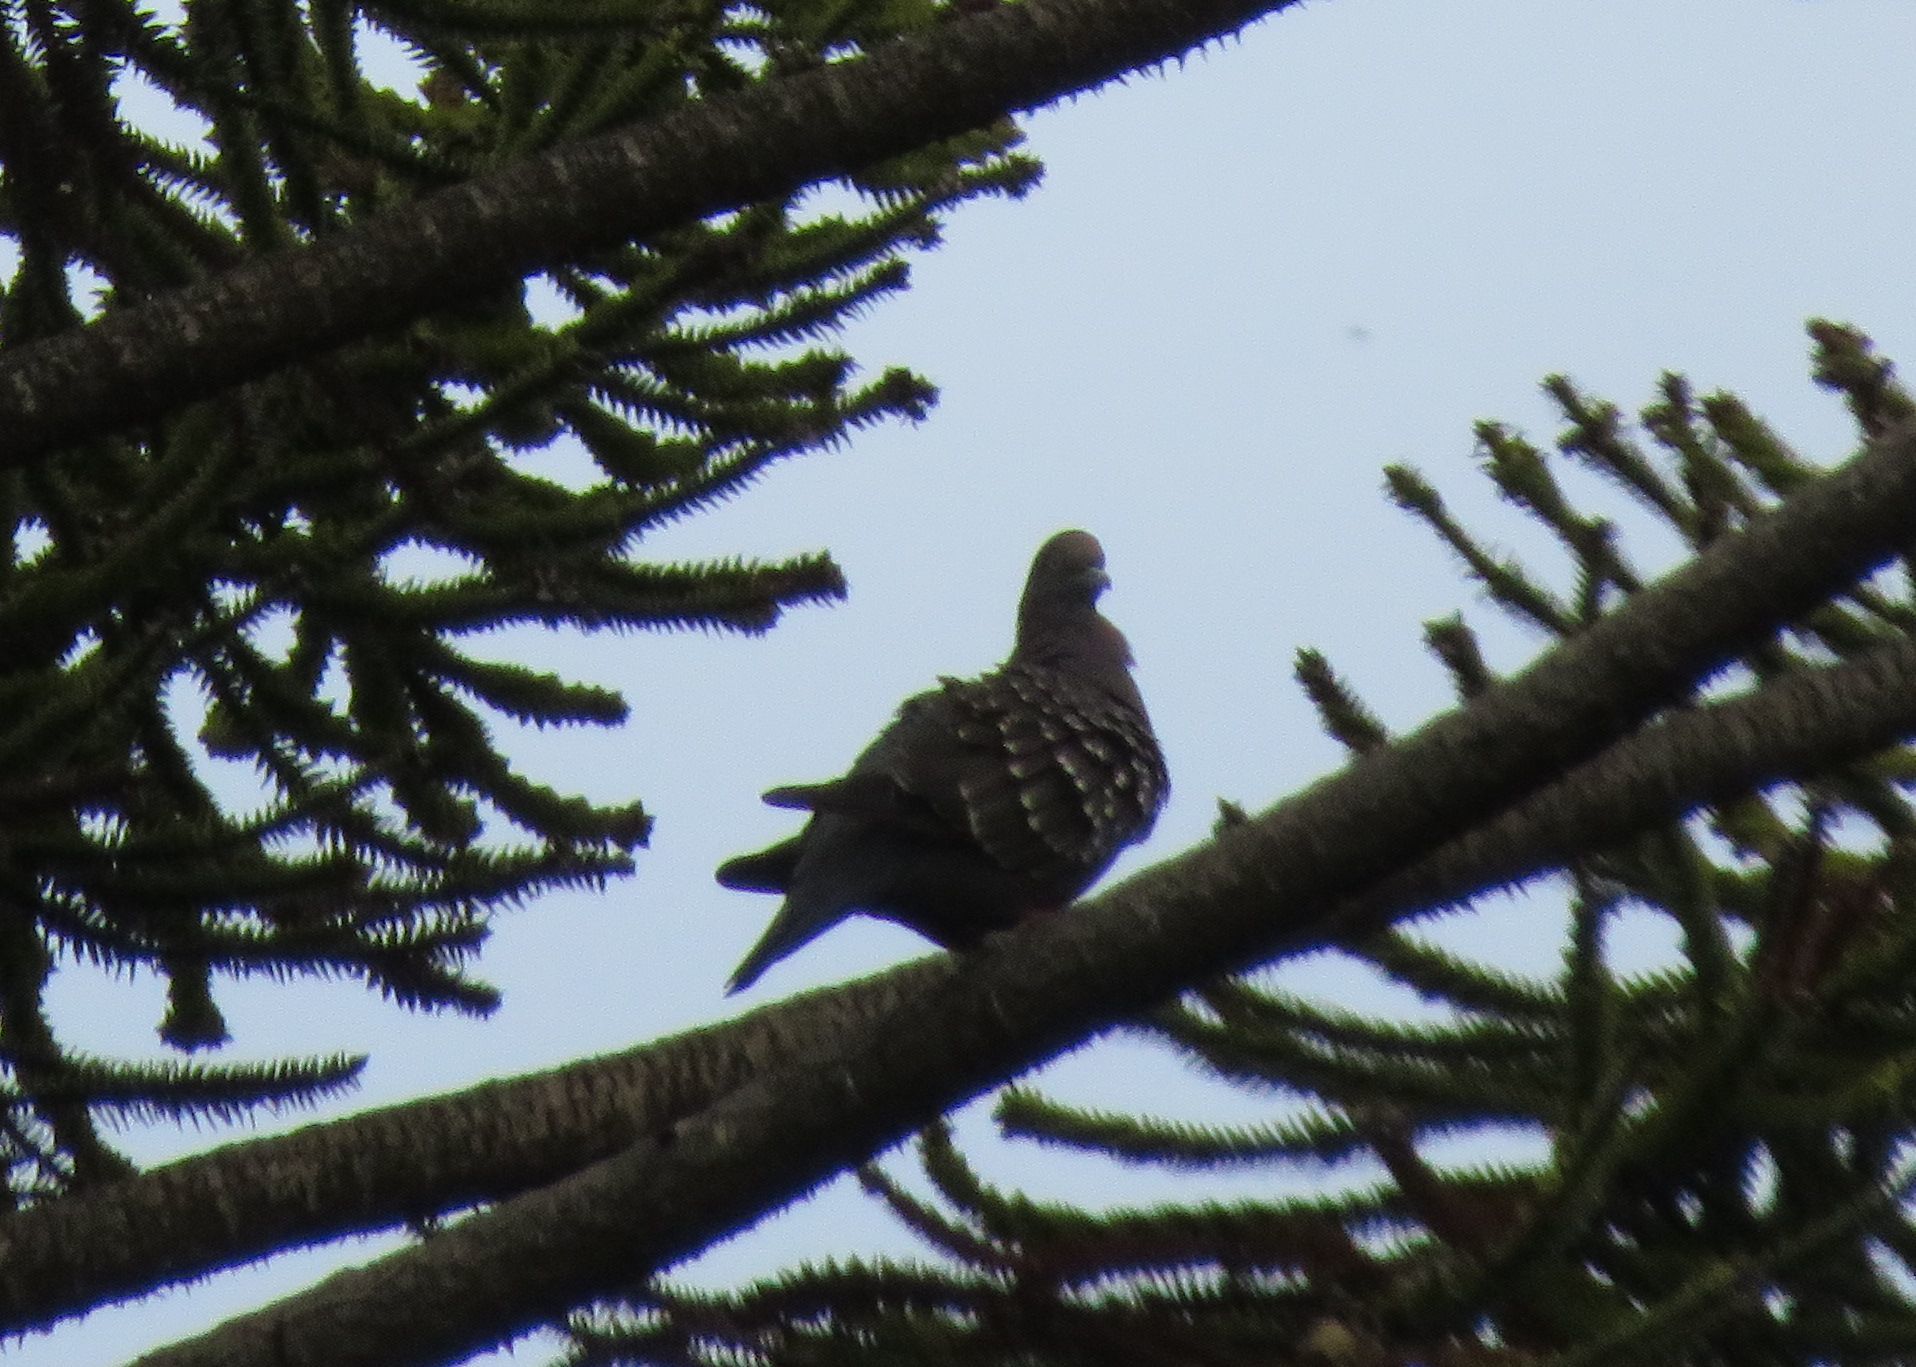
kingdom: Animalia
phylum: Chordata
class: Aves
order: Columbiformes
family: Columbidae
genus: Patagioenas
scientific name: Patagioenas maculosa
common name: Spot-winged pigeon
